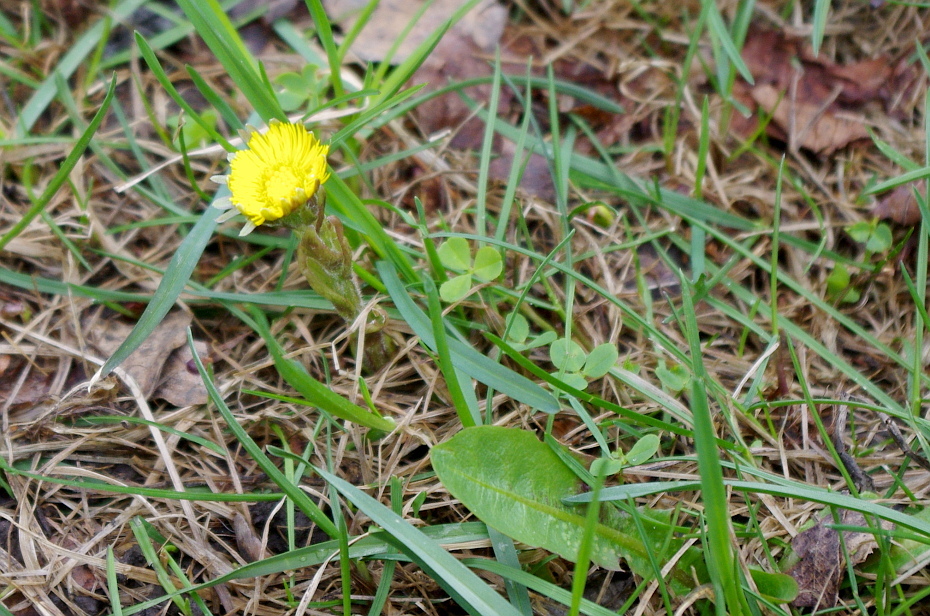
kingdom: Plantae
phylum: Tracheophyta
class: Magnoliopsida
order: Asterales
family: Asteraceae
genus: Tussilago
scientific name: Tussilago farfara
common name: Coltsfoot
